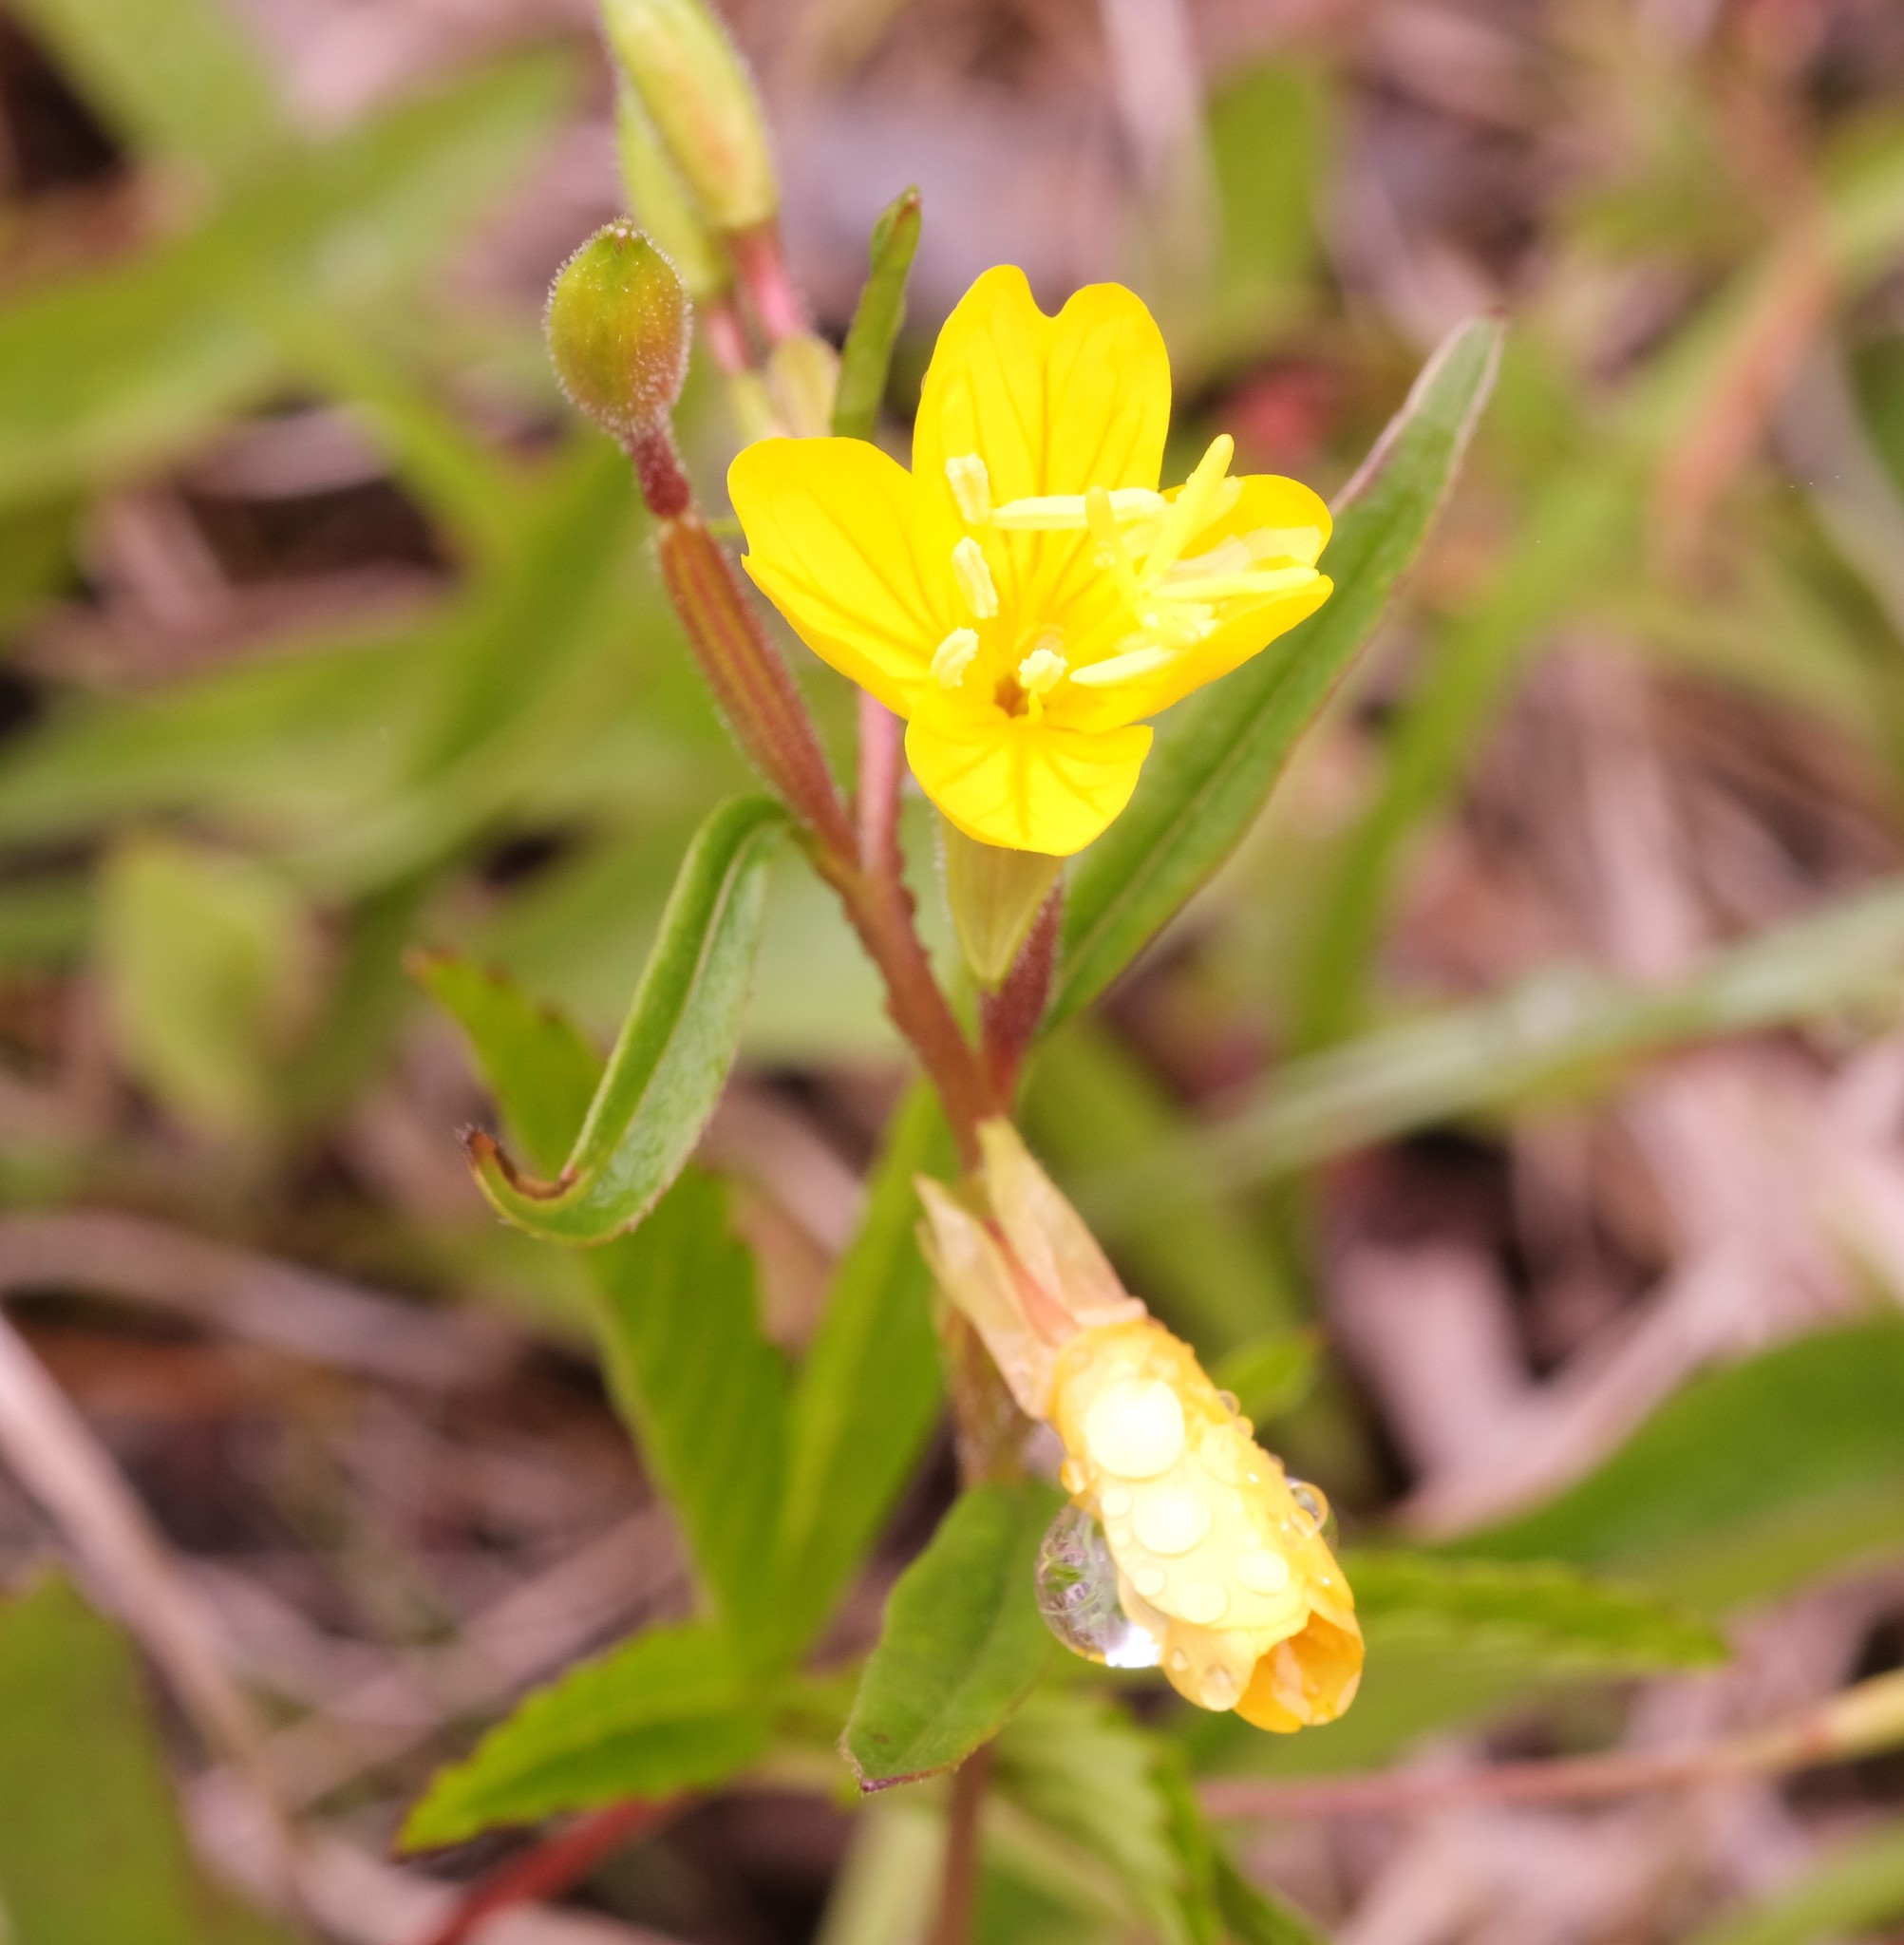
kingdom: Plantae
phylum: Tracheophyta
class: Magnoliopsida
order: Myrtales
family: Onagraceae
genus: Oenothera
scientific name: Oenothera perennis
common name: Small sundrops
